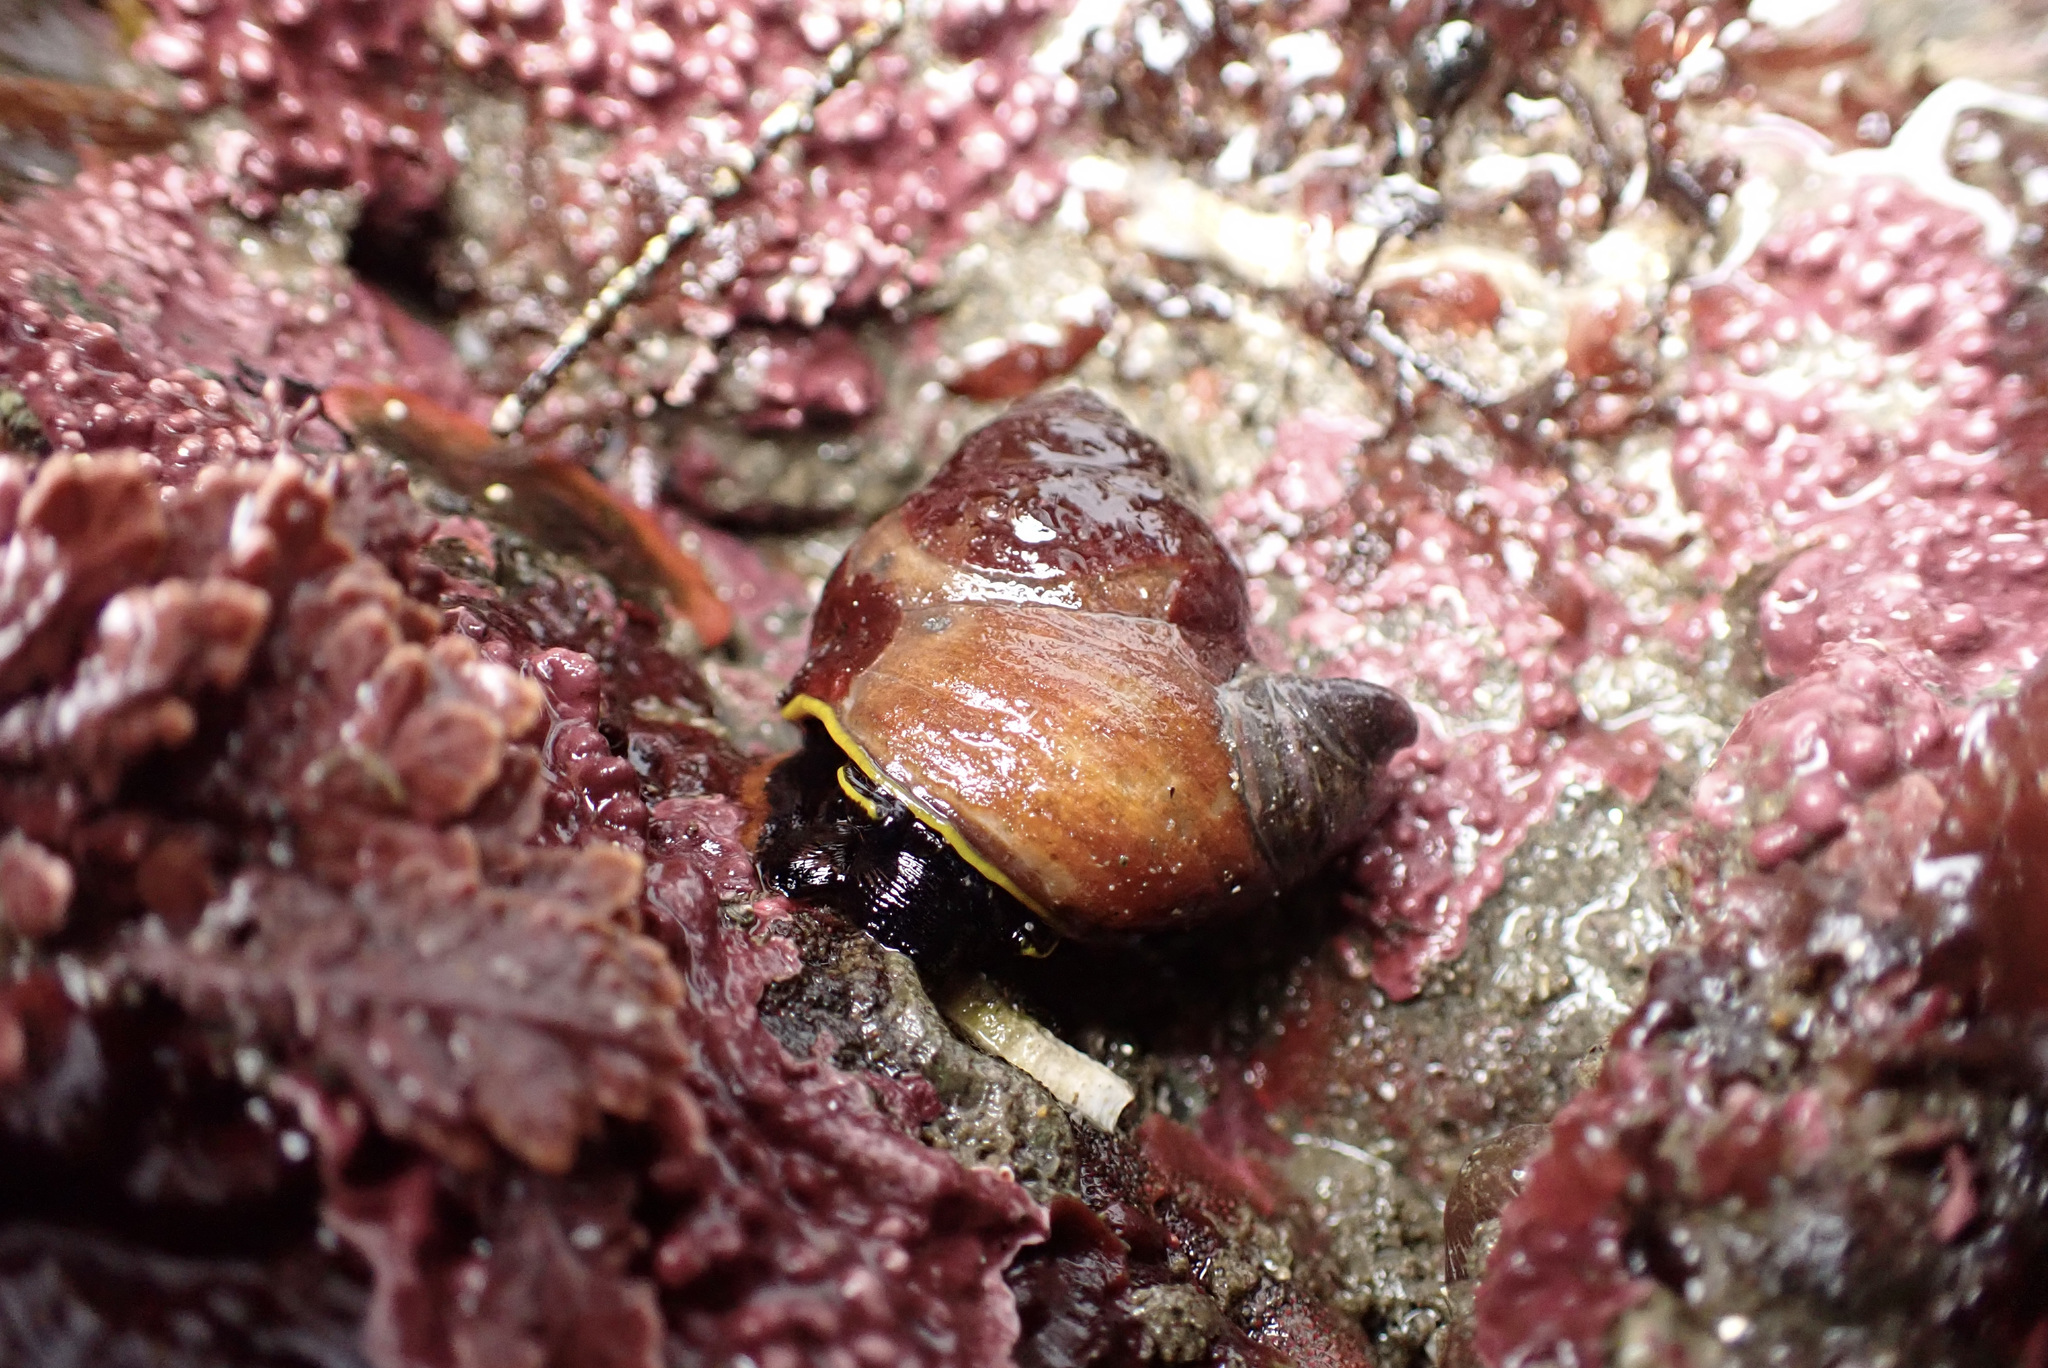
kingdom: Animalia
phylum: Mollusca
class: Gastropoda
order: Trochida
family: Tegulidae
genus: Tegula
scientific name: Tegula brunnea
